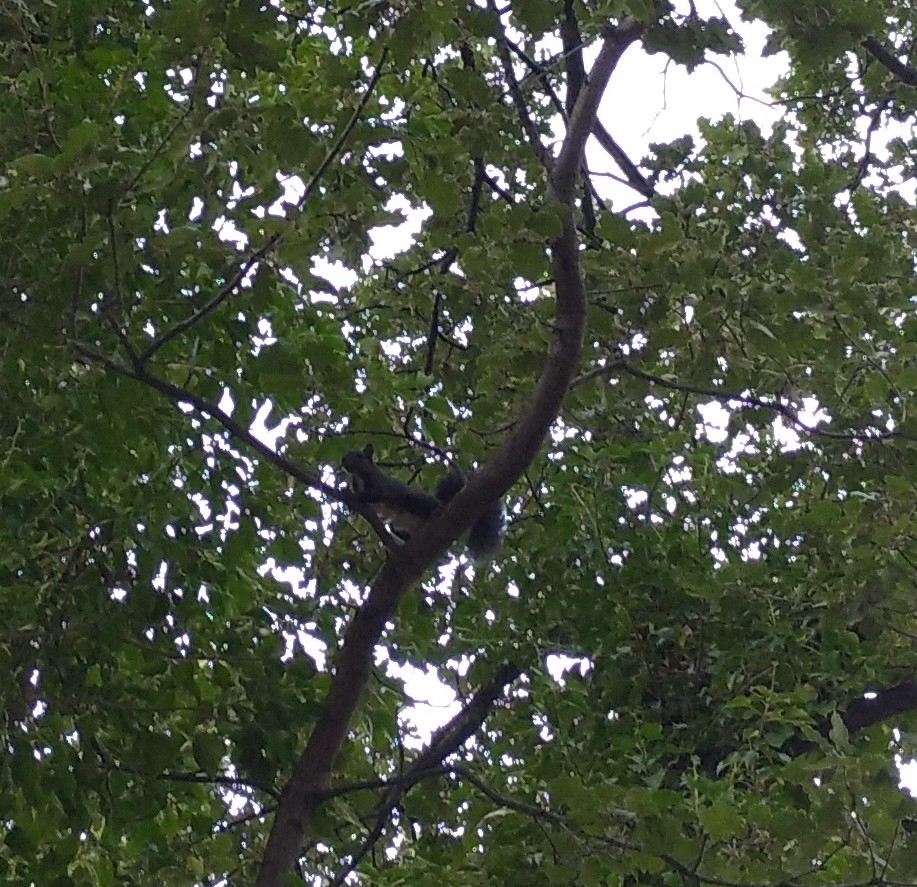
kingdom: Animalia
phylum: Chordata
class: Mammalia
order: Rodentia
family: Sciuridae
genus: Sciurus
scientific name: Sciurus vulgaris
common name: Eurasian red squirrel
